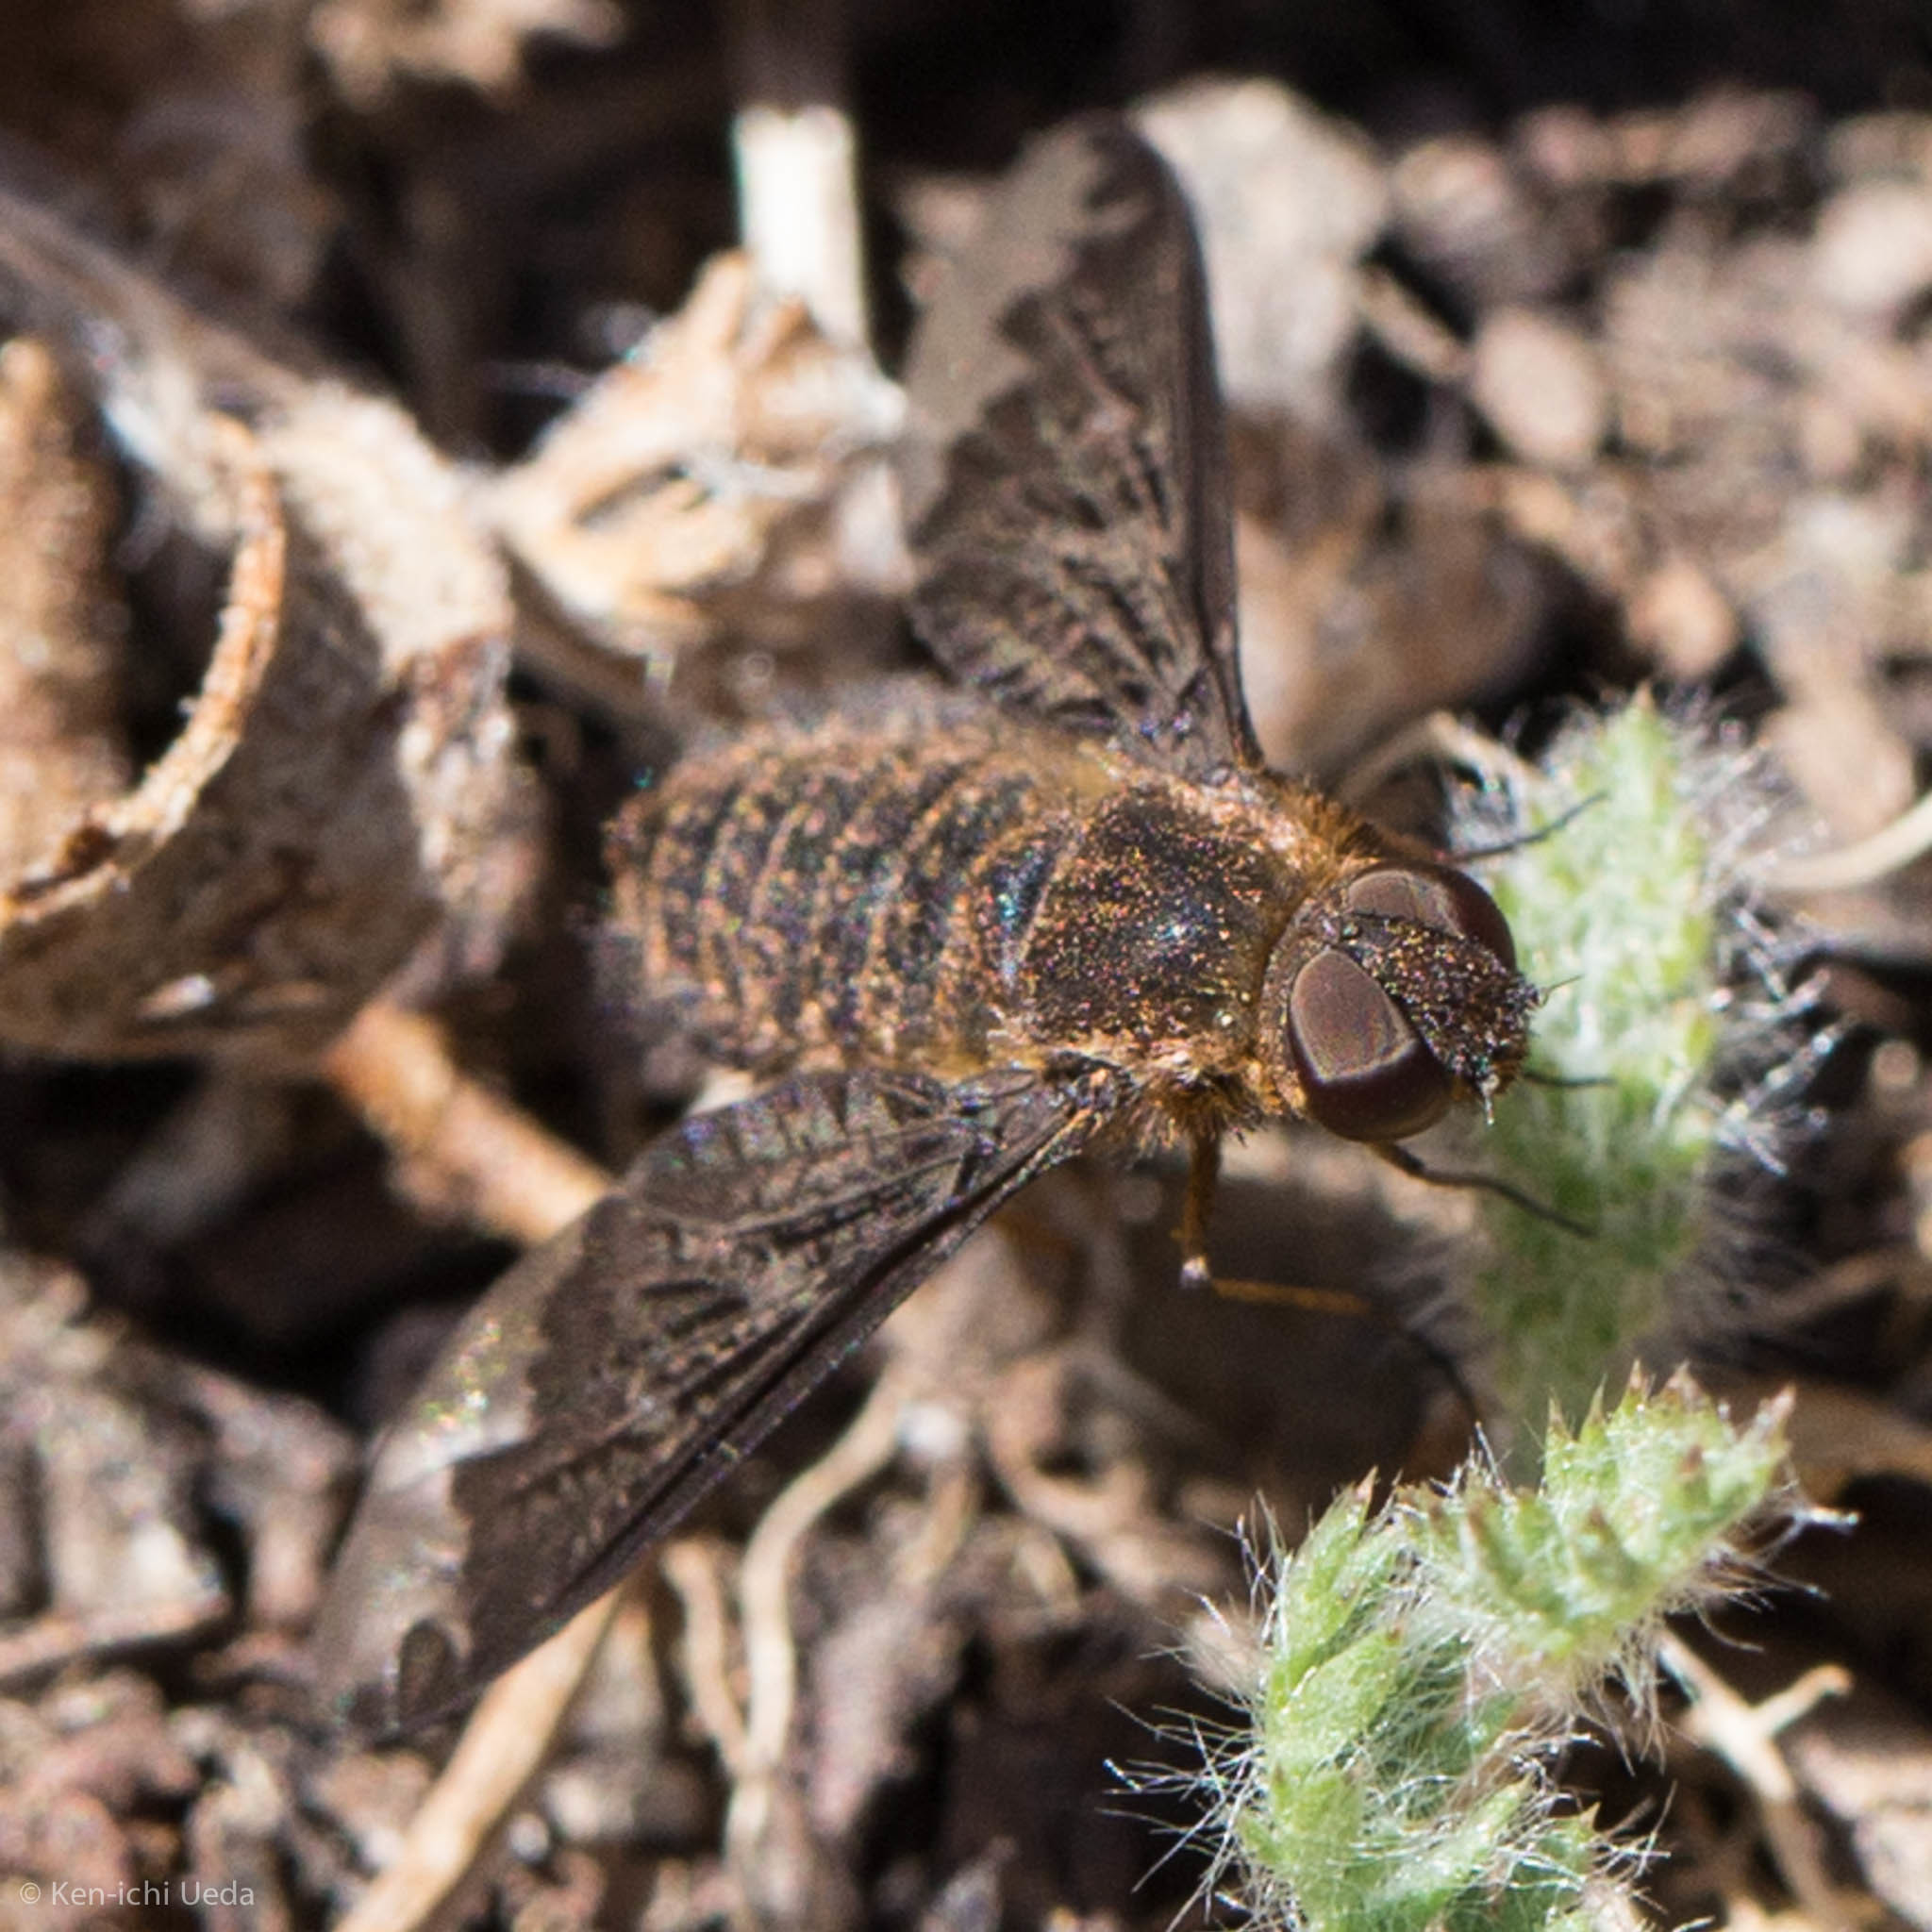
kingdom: Animalia
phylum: Arthropoda
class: Insecta
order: Diptera
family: Bombyliidae
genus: Hemipenthes
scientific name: Hemipenthes sinuosus
